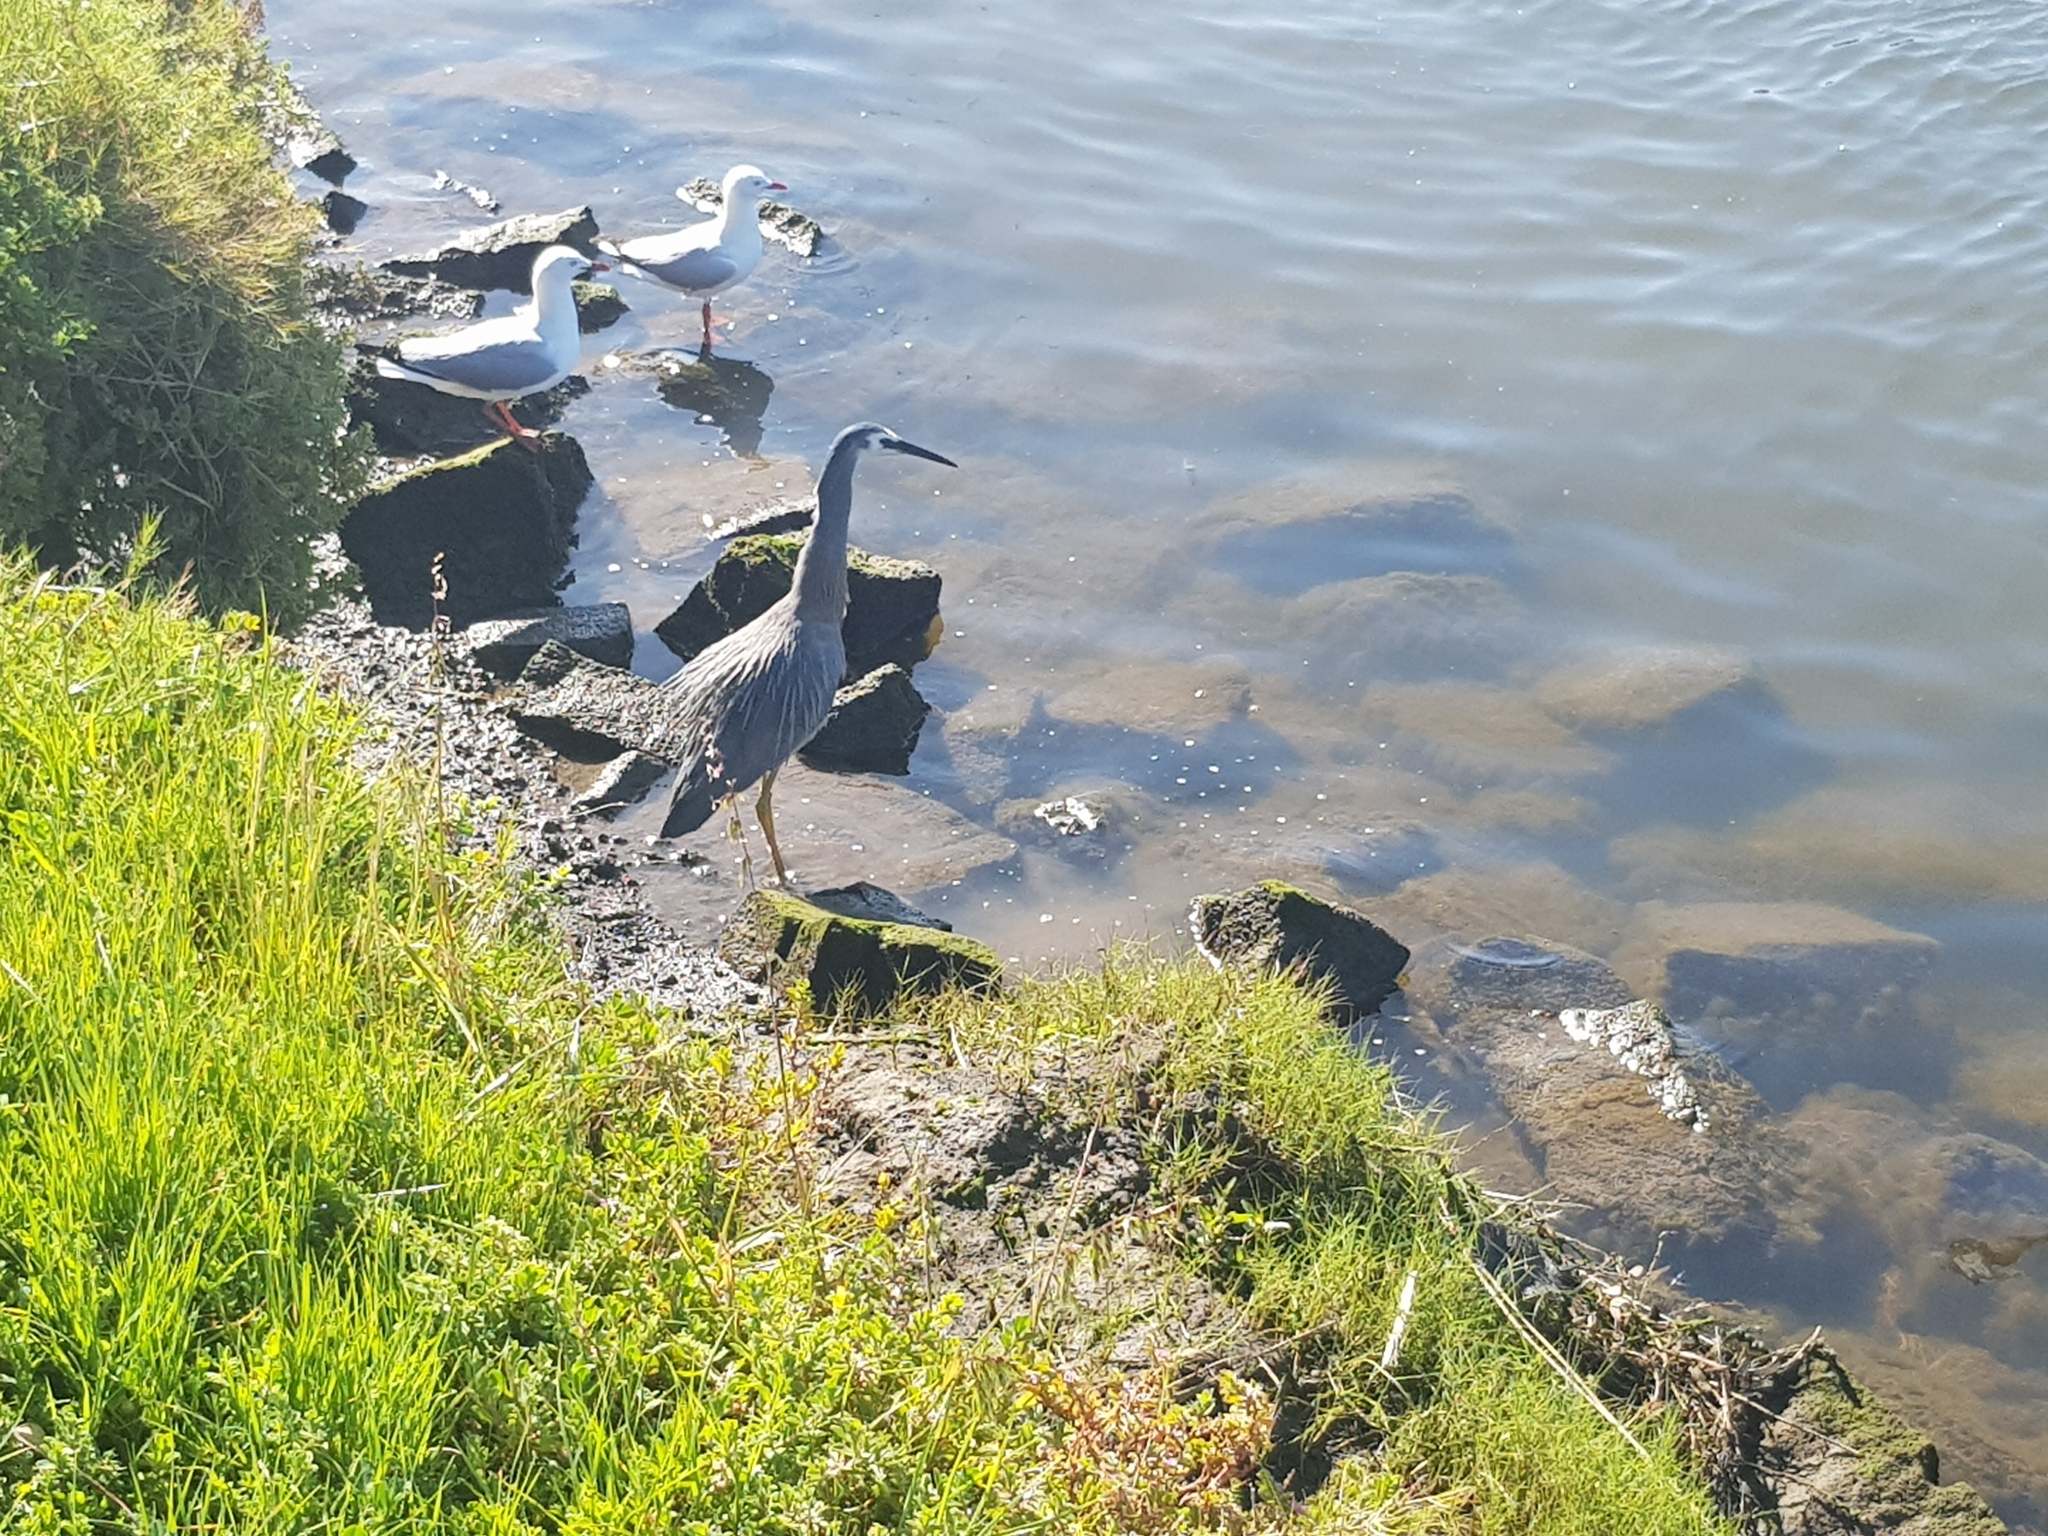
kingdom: Animalia
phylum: Chordata
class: Aves
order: Pelecaniformes
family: Ardeidae
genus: Egretta
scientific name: Egretta novaehollandiae
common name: White-faced heron
